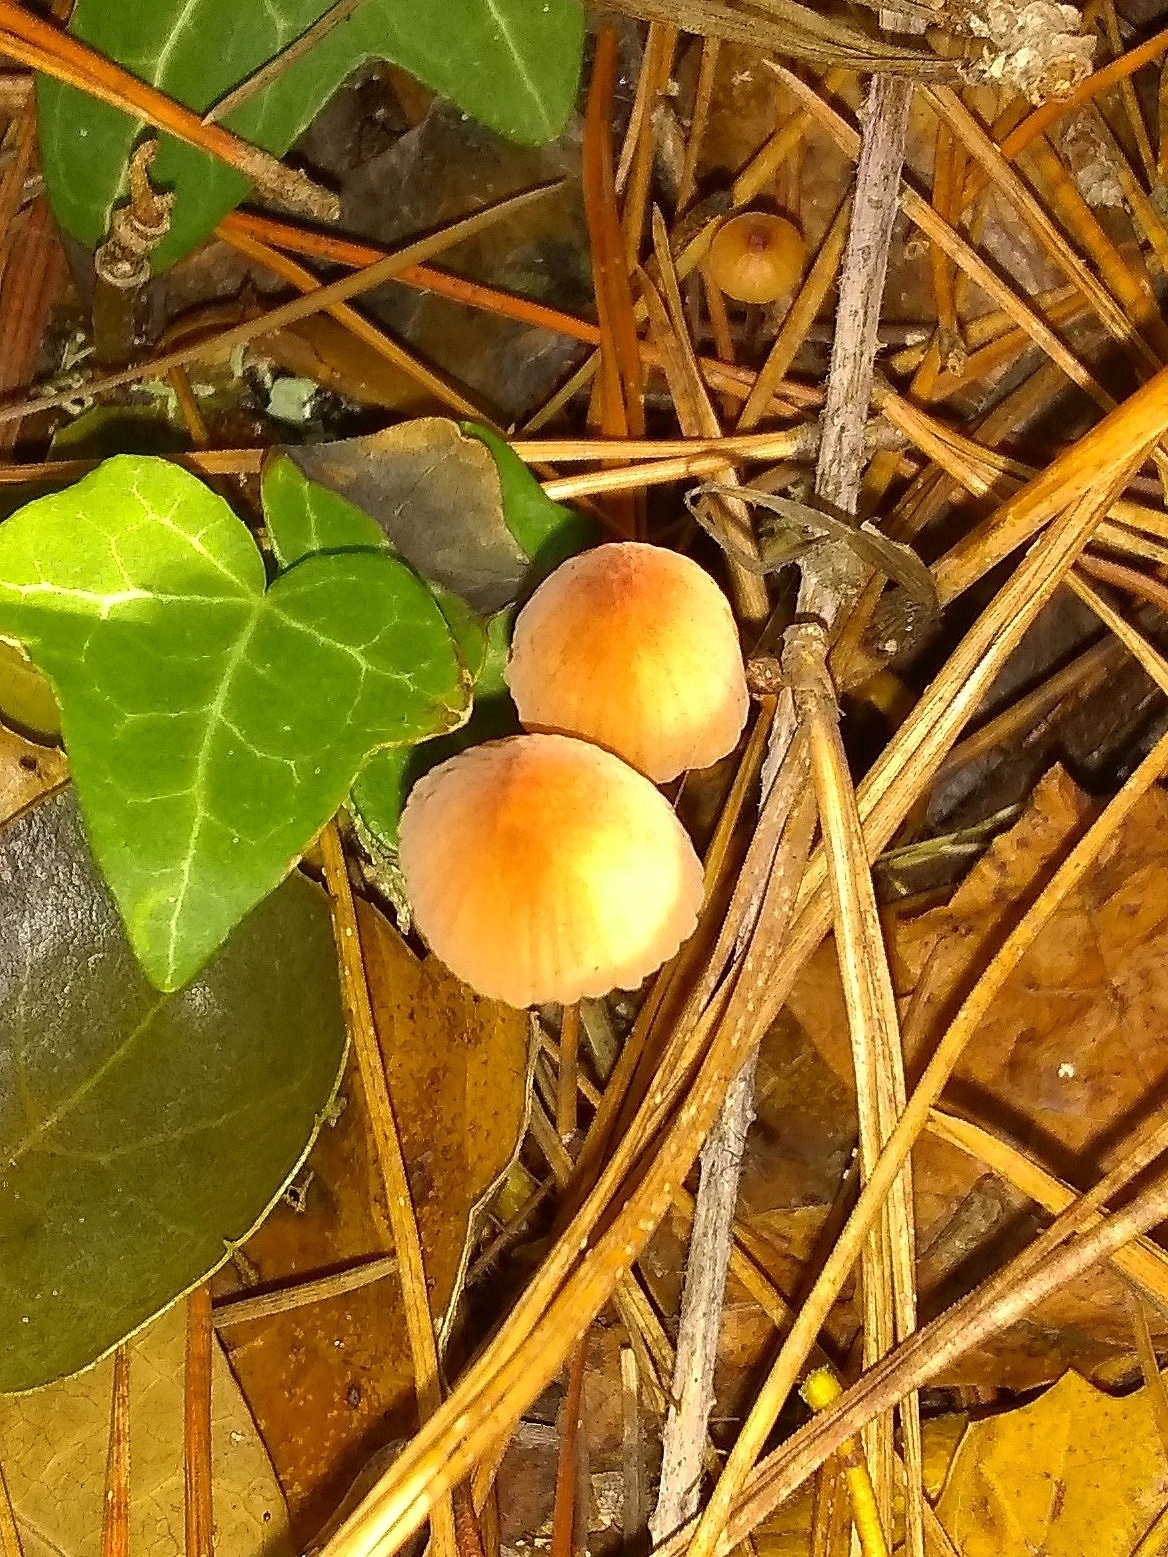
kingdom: Fungi
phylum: Basidiomycota
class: Agaricomycetes
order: Agaricales
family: Mycenaceae
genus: Mycena
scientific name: Mycena
